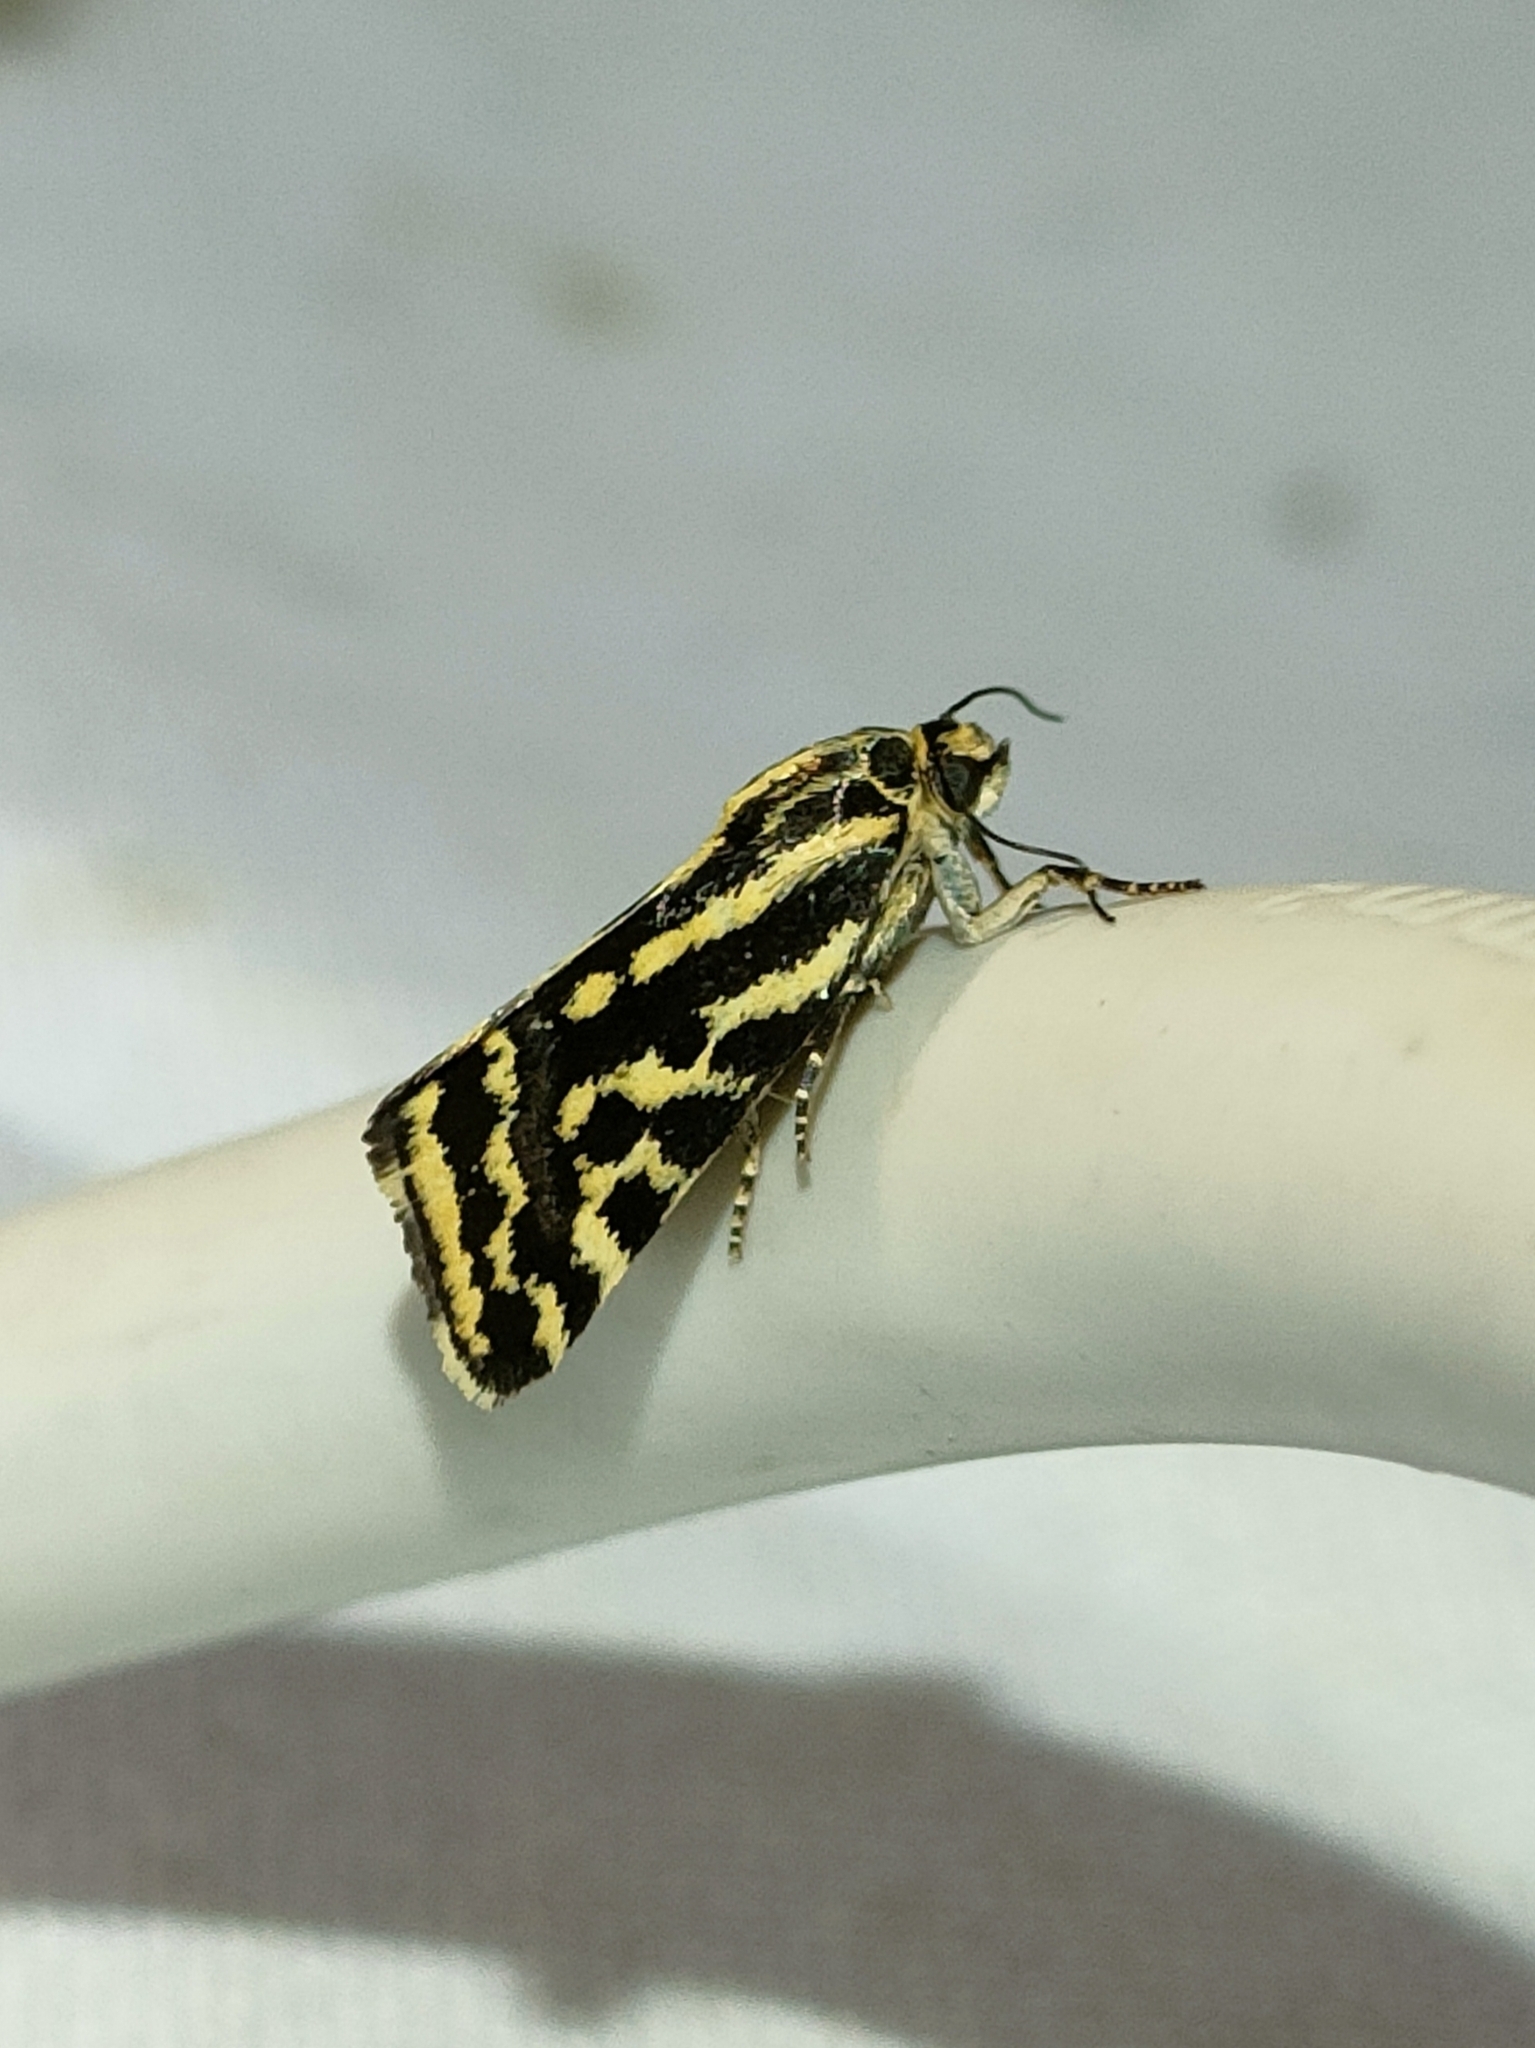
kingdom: Animalia
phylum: Arthropoda
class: Insecta
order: Lepidoptera
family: Noctuidae
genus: Acontia
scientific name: Acontia trabealis
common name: Spotted sulphur
